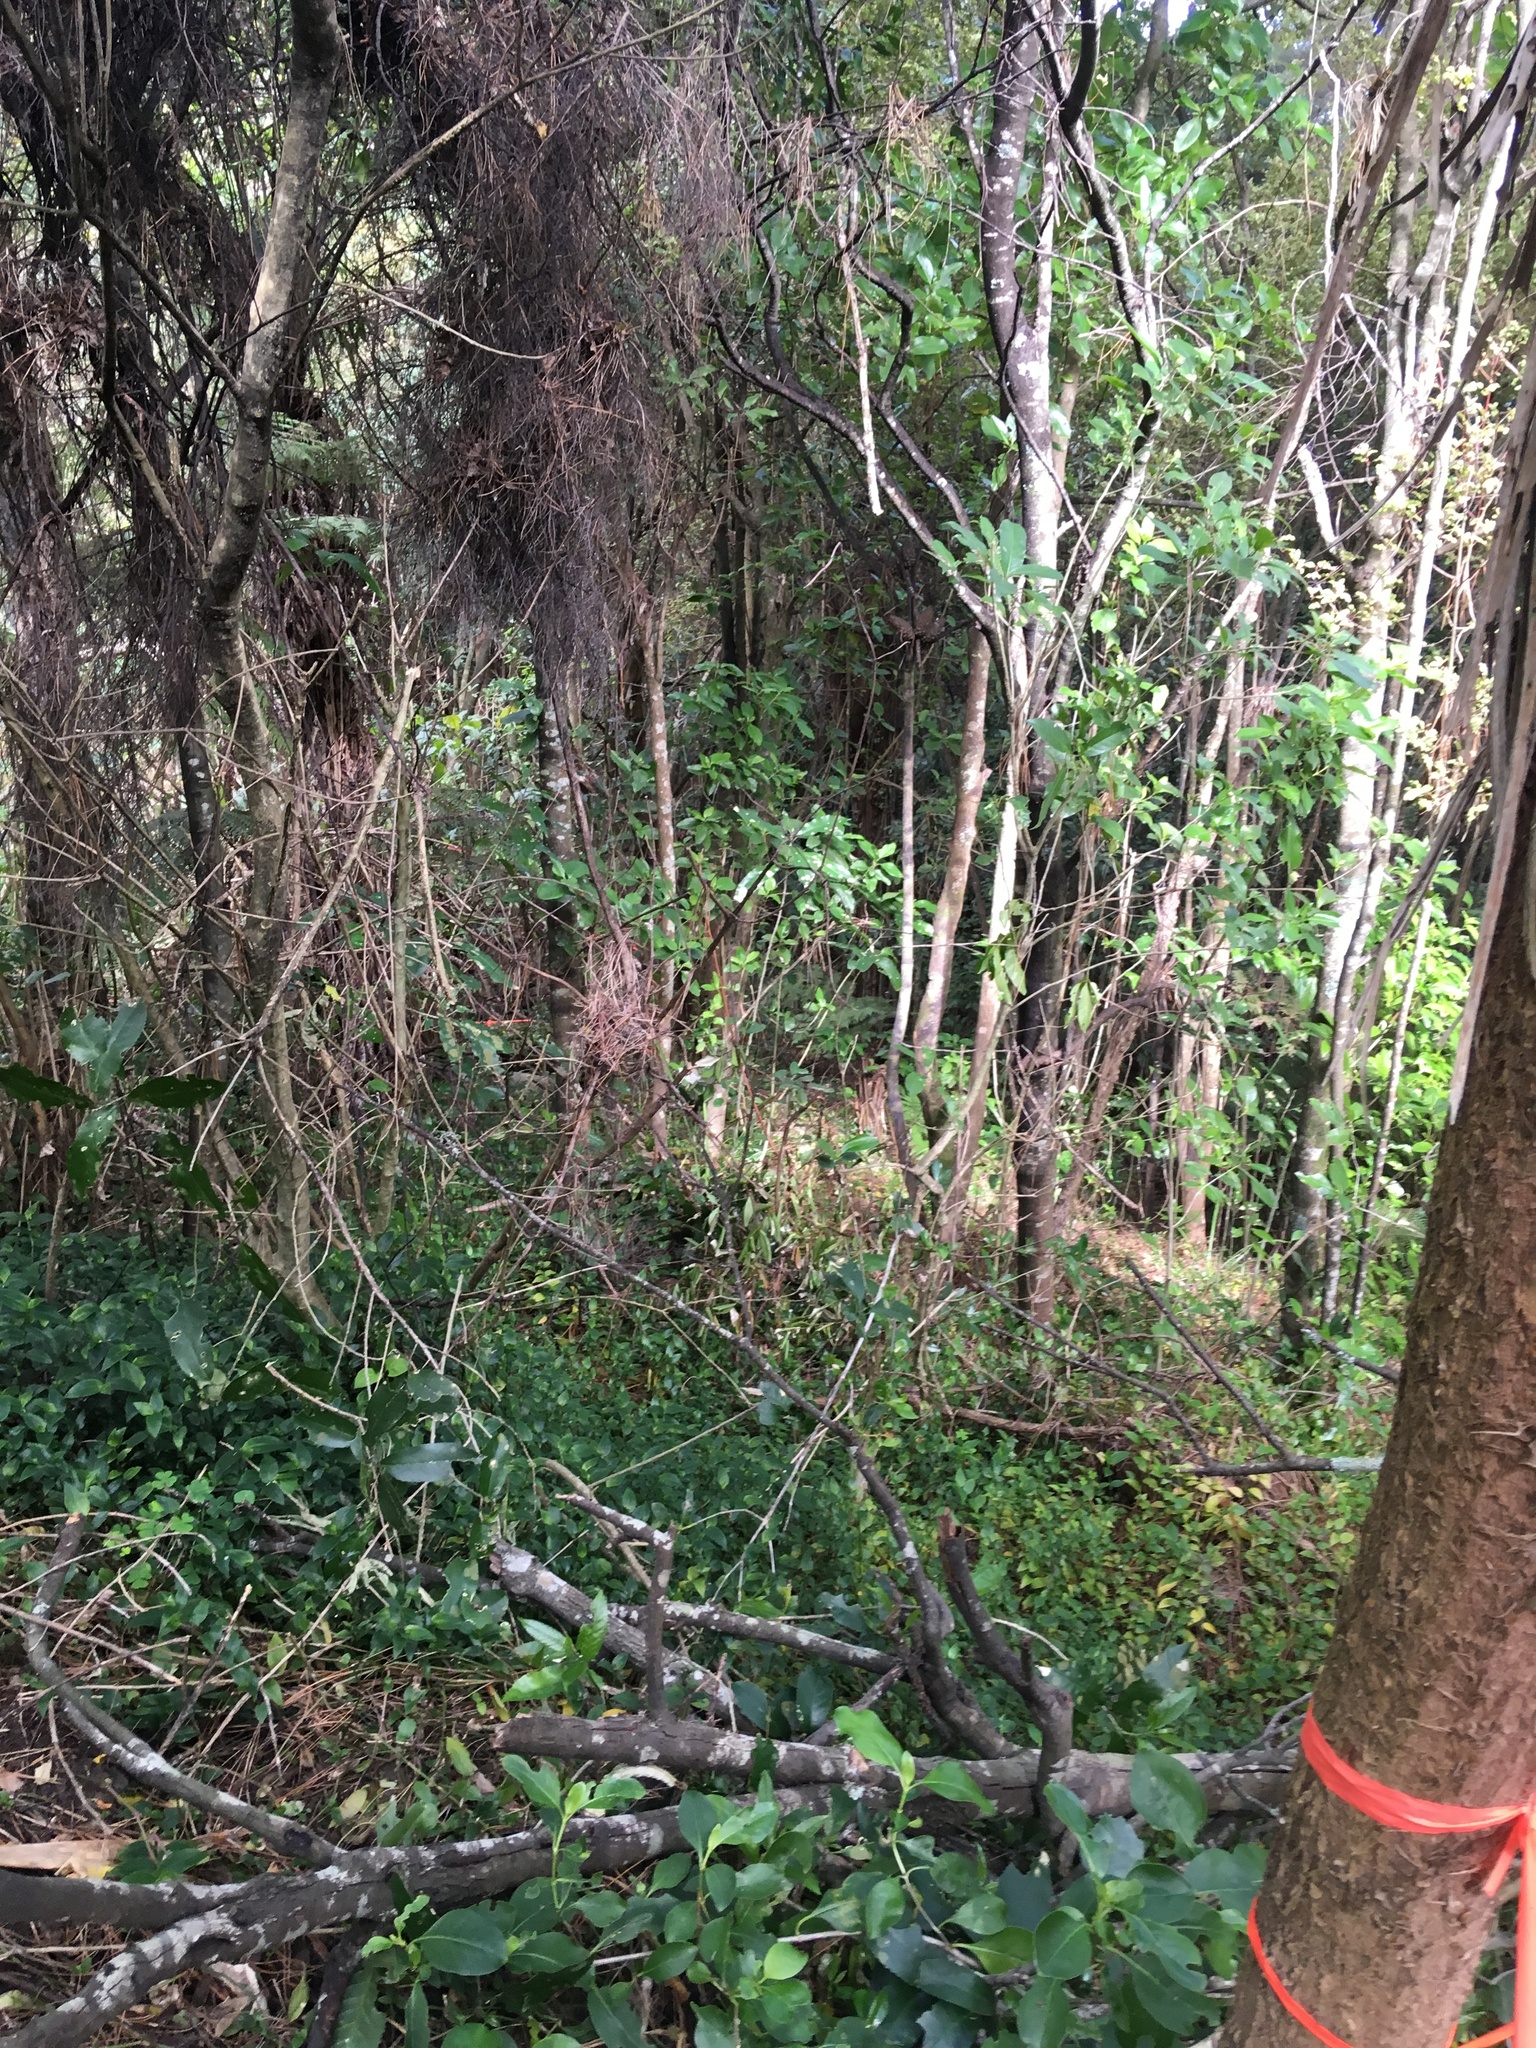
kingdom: Plantae
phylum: Tracheophyta
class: Liliopsida
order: Commelinales
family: Commelinaceae
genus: Tradescantia
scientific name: Tradescantia fluminensis
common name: Wandering-jew
